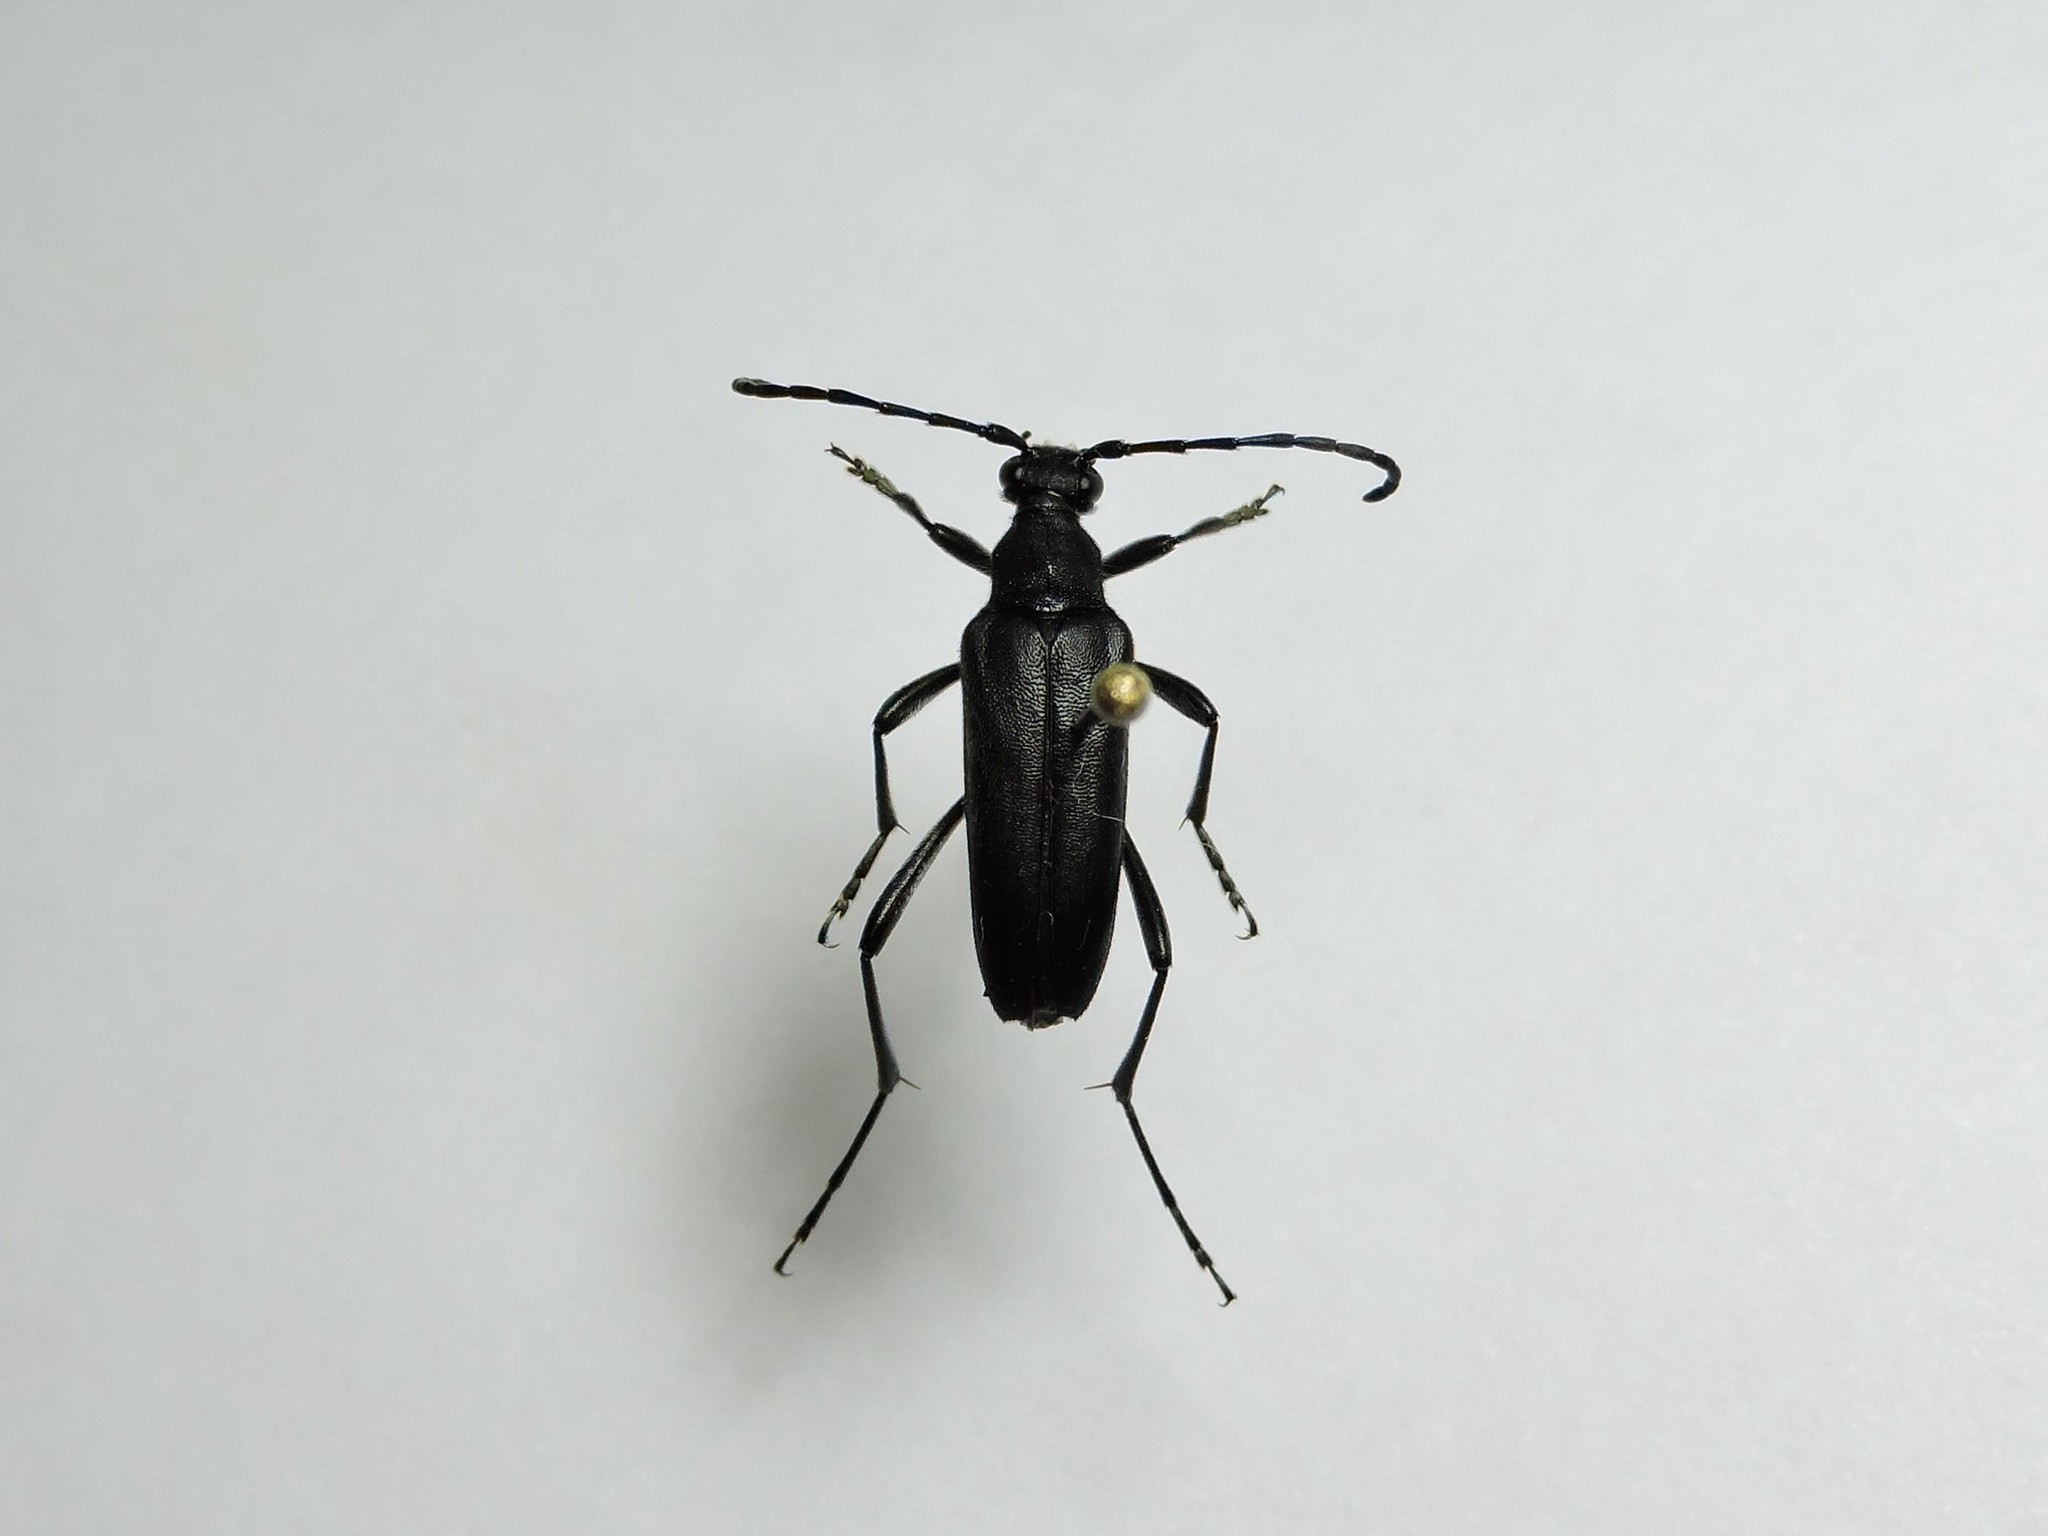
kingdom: Animalia
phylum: Arthropoda
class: Insecta
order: Coleoptera
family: Cerambycidae
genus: Leptura
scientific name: Leptura aethiops
